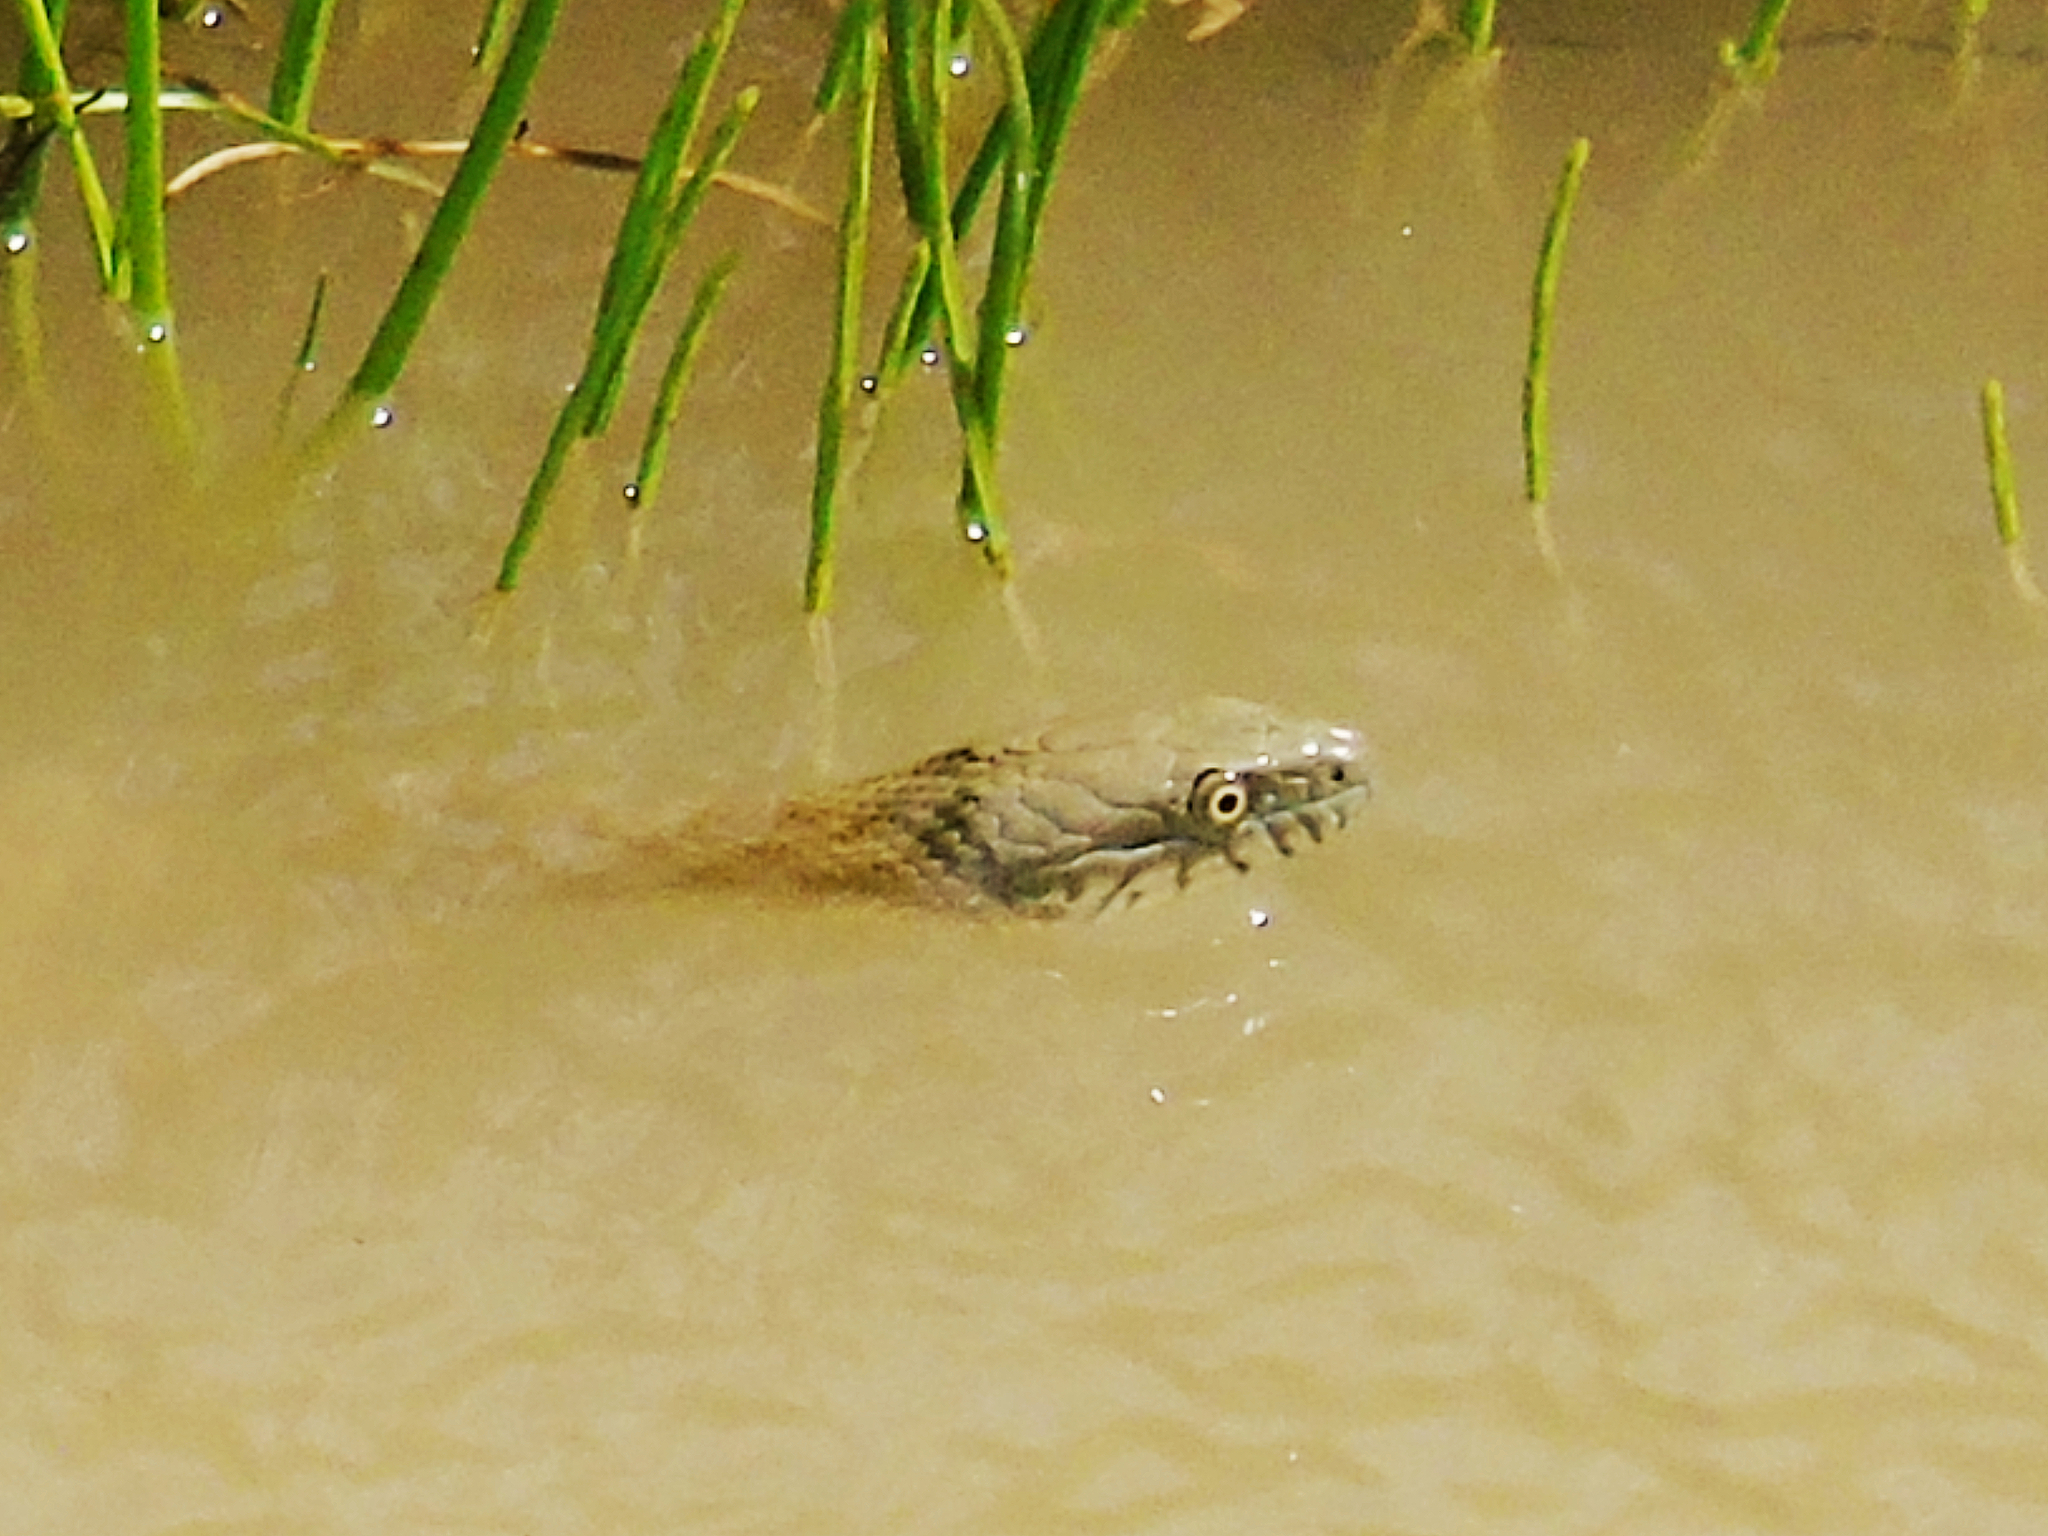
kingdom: Animalia
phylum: Chordata
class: Squamata
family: Colubridae
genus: Natrix
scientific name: Natrix tessellata
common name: Dice snake
